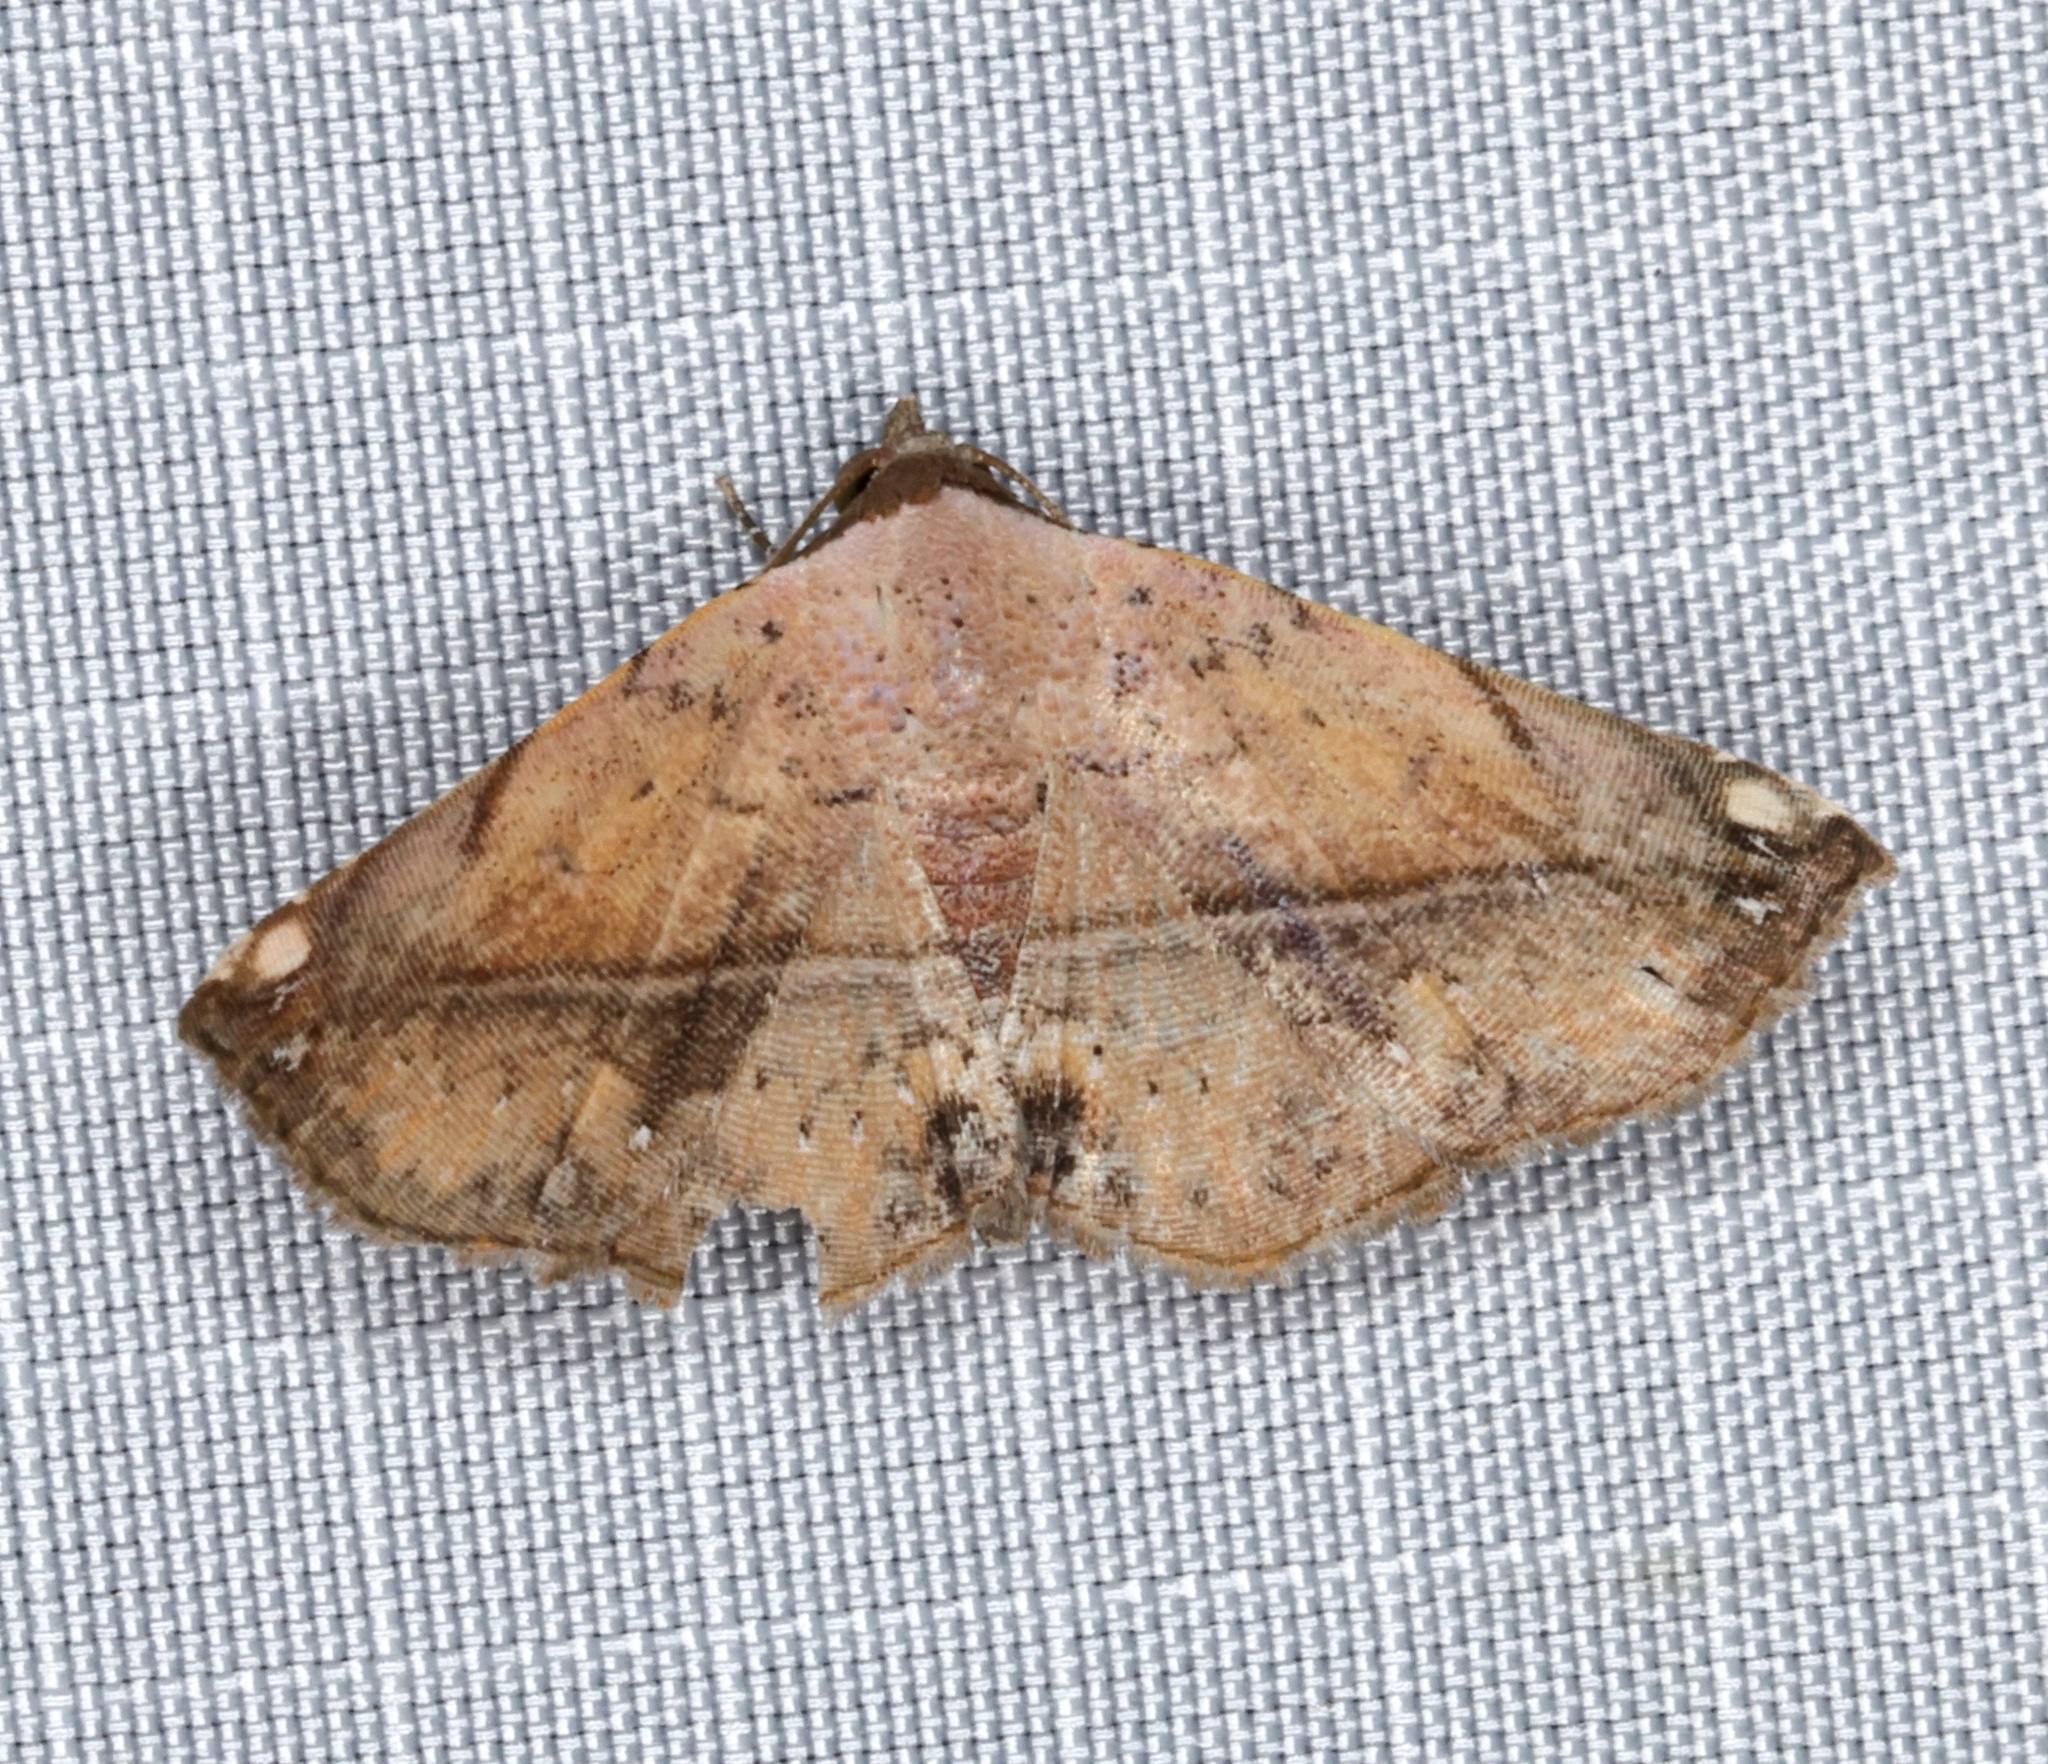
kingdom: Animalia
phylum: Arthropoda
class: Insecta
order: Lepidoptera
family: Noctuidae
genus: Eublemma
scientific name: Eublemma abrupta
